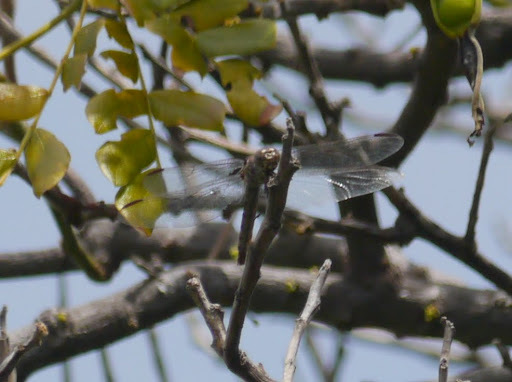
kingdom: Animalia
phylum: Arthropoda
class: Insecta
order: Odonata
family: Libellulidae
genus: Orthemis
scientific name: Orthemis ferruginea
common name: Roseate skimmer
